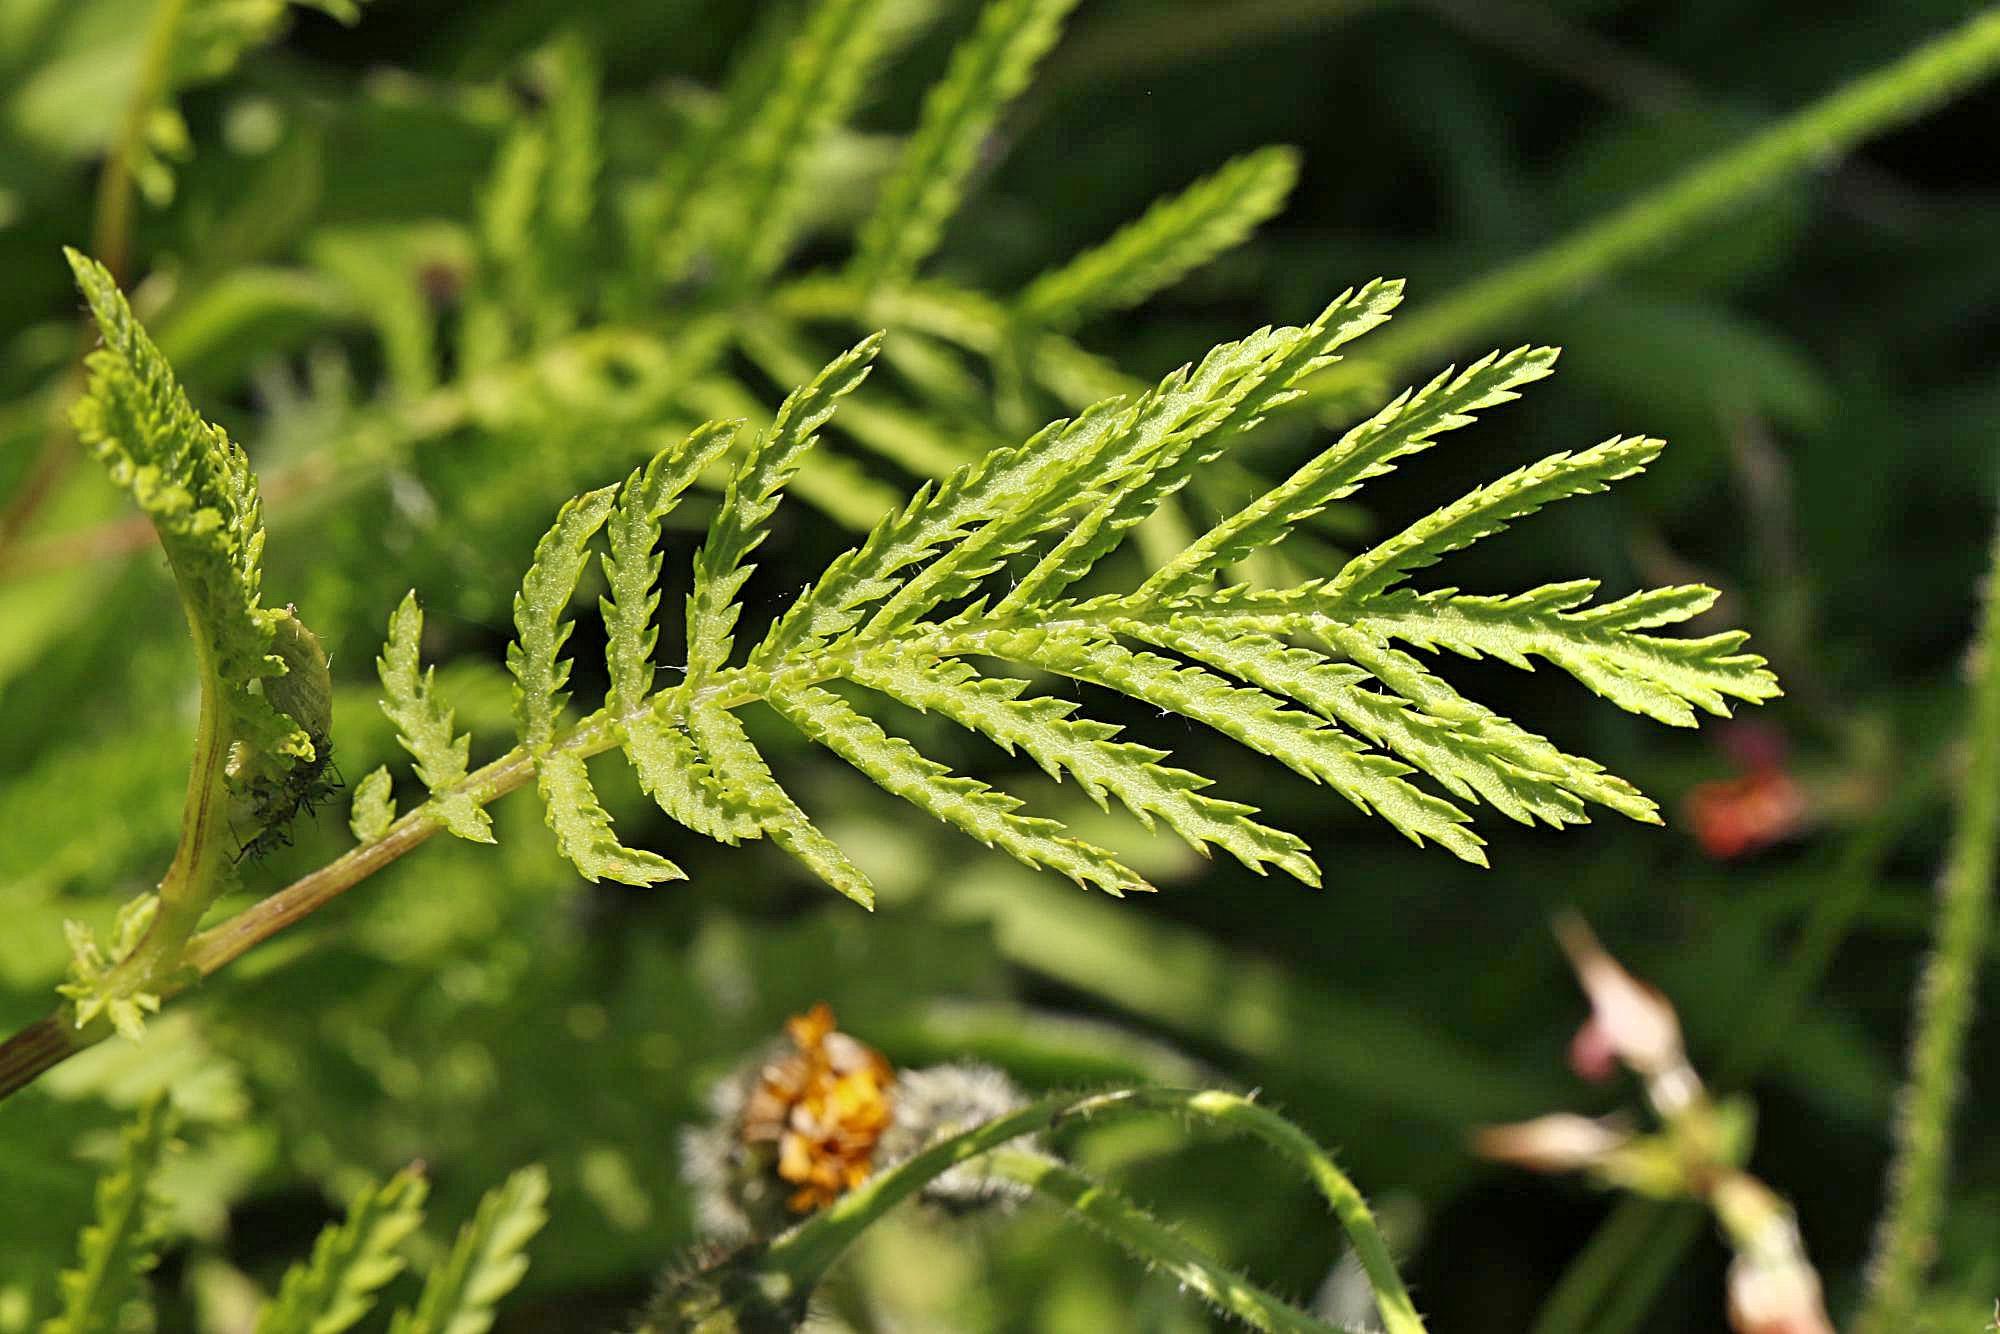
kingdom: Plantae
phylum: Tracheophyta
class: Magnoliopsida
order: Asterales
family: Asteraceae
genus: Tanacetum
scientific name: Tanacetum vulgare
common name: Common tansy
